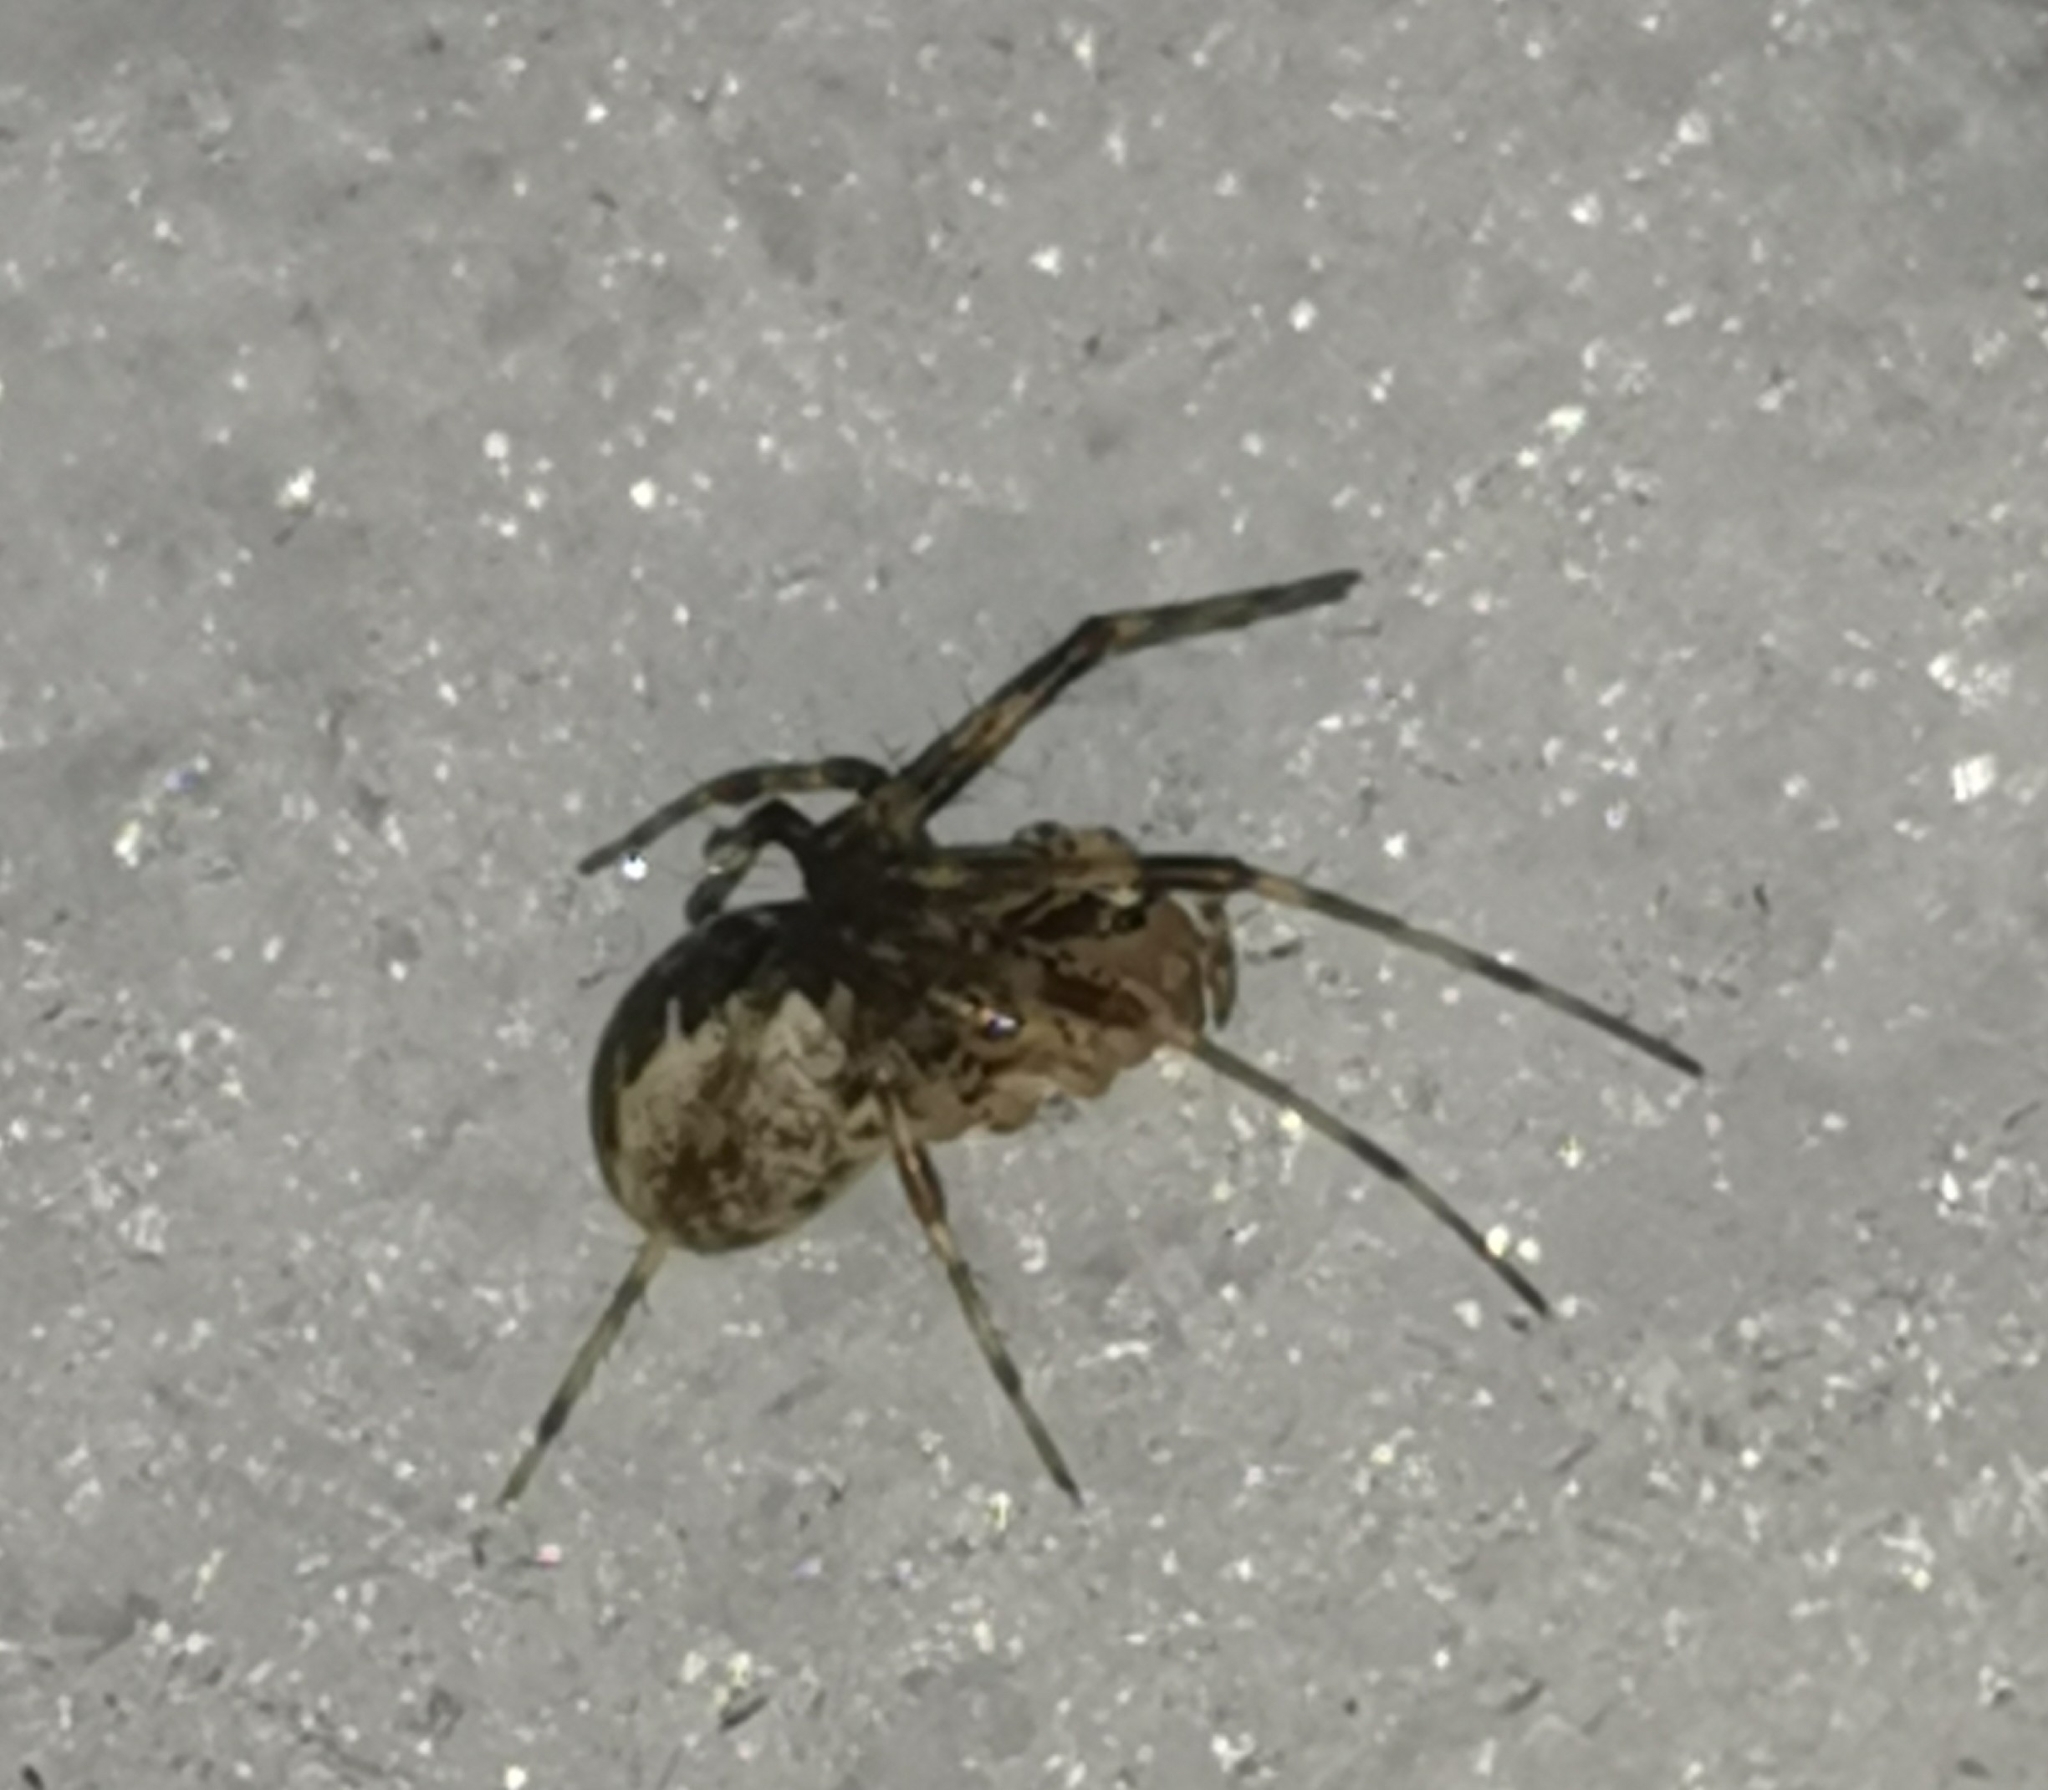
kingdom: Animalia
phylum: Arthropoda
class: Arachnida
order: Araneae
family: Linyphiidae
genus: Pityohyphantes
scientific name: Pityohyphantes phrygianus
